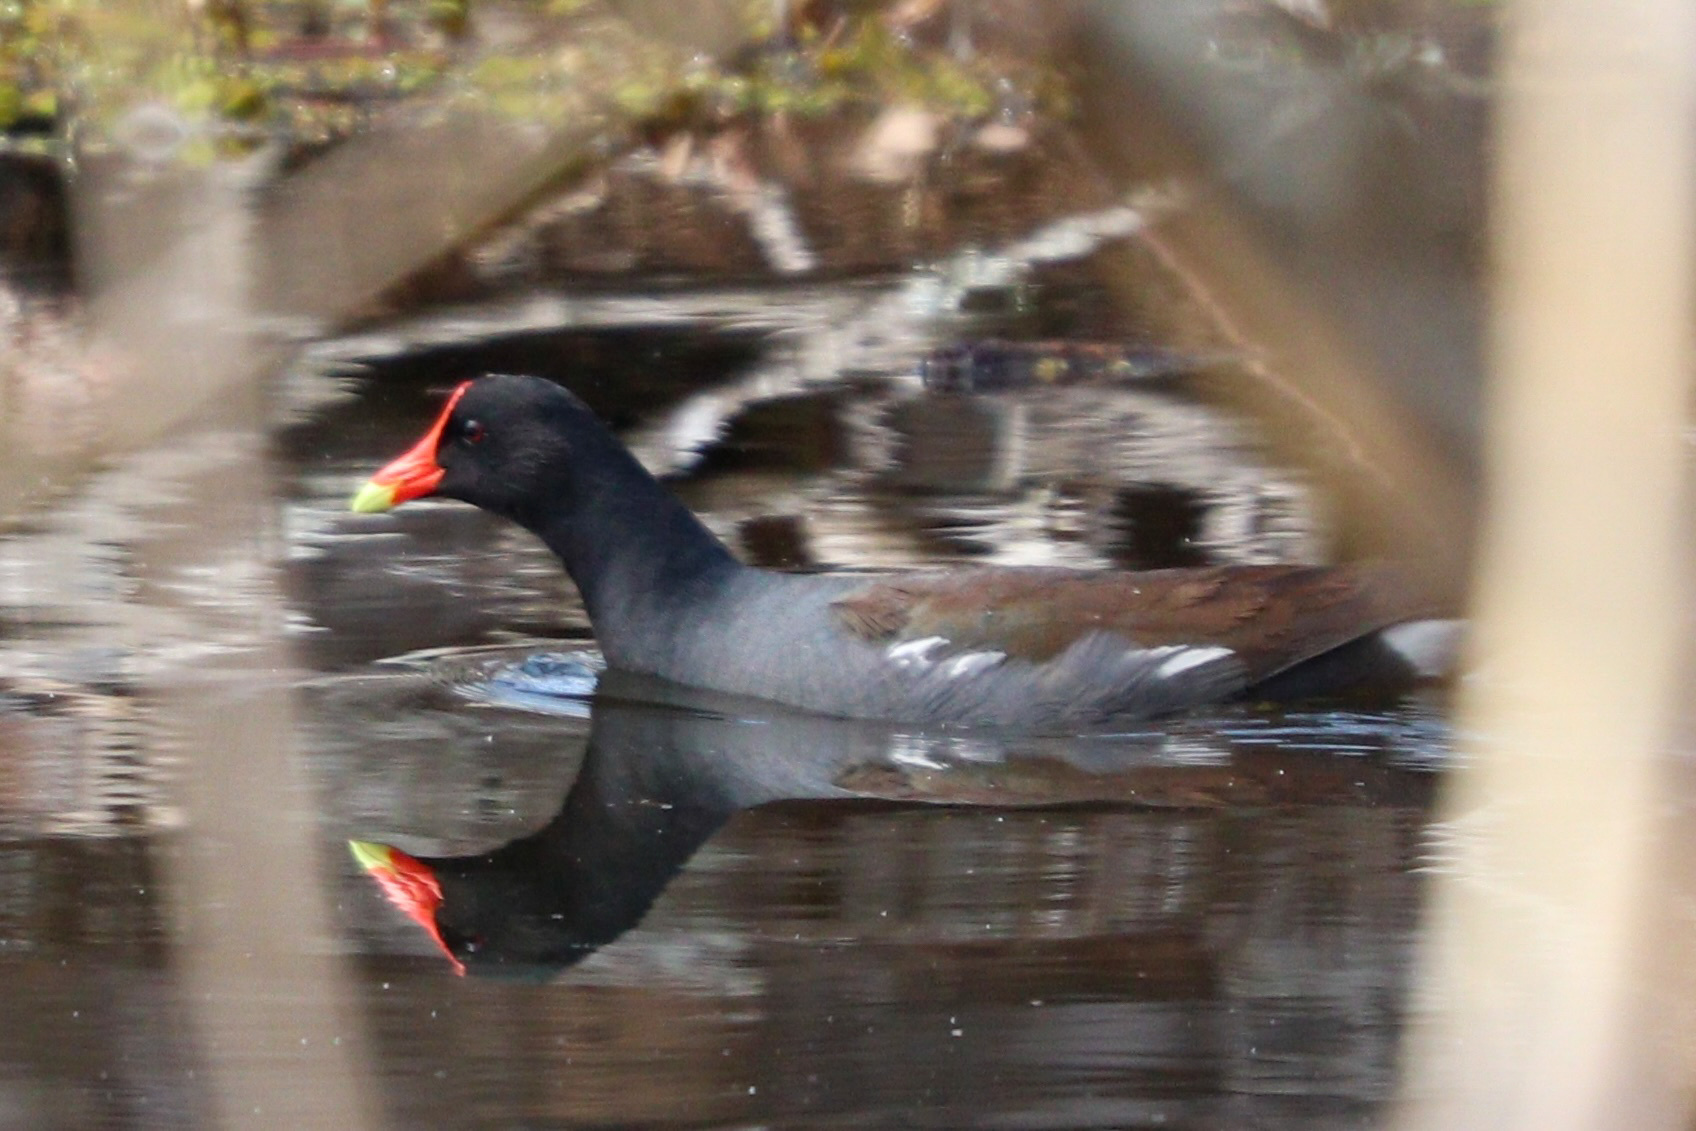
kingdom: Animalia
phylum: Chordata
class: Aves
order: Gruiformes
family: Rallidae
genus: Gallinula
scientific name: Gallinula chloropus
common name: Common moorhen
